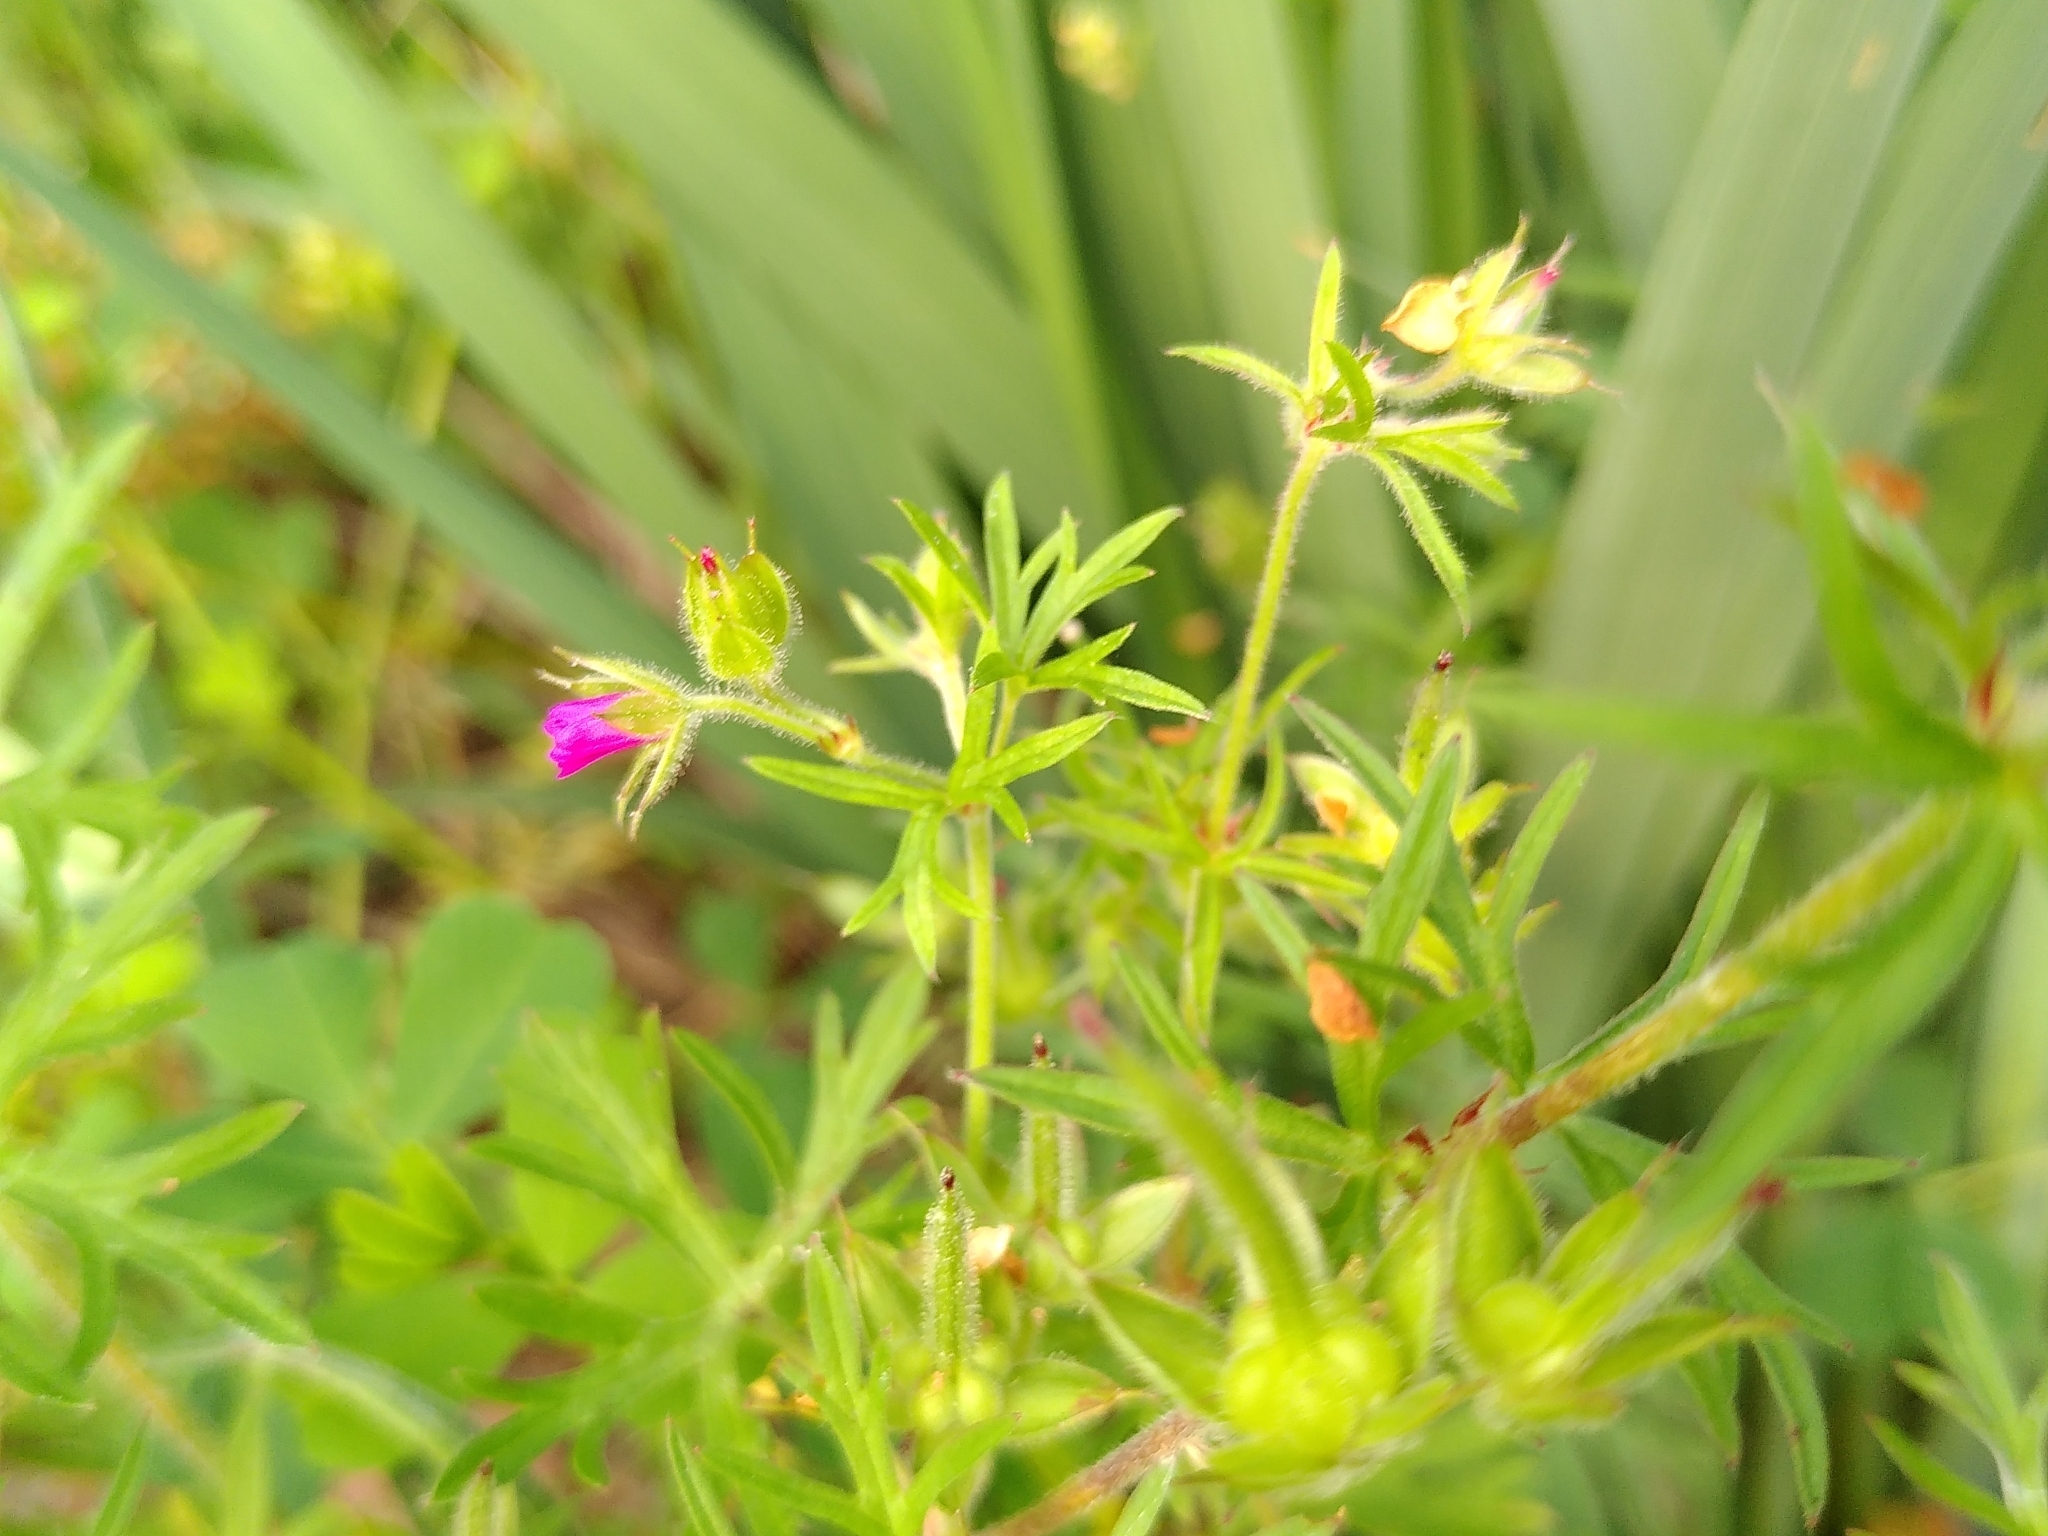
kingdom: Plantae
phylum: Tracheophyta
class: Magnoliopsida
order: Geraniales
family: Geraniaceae
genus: Geranium
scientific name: Geranium dissectum
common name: Cut-leaved crane's-bill
